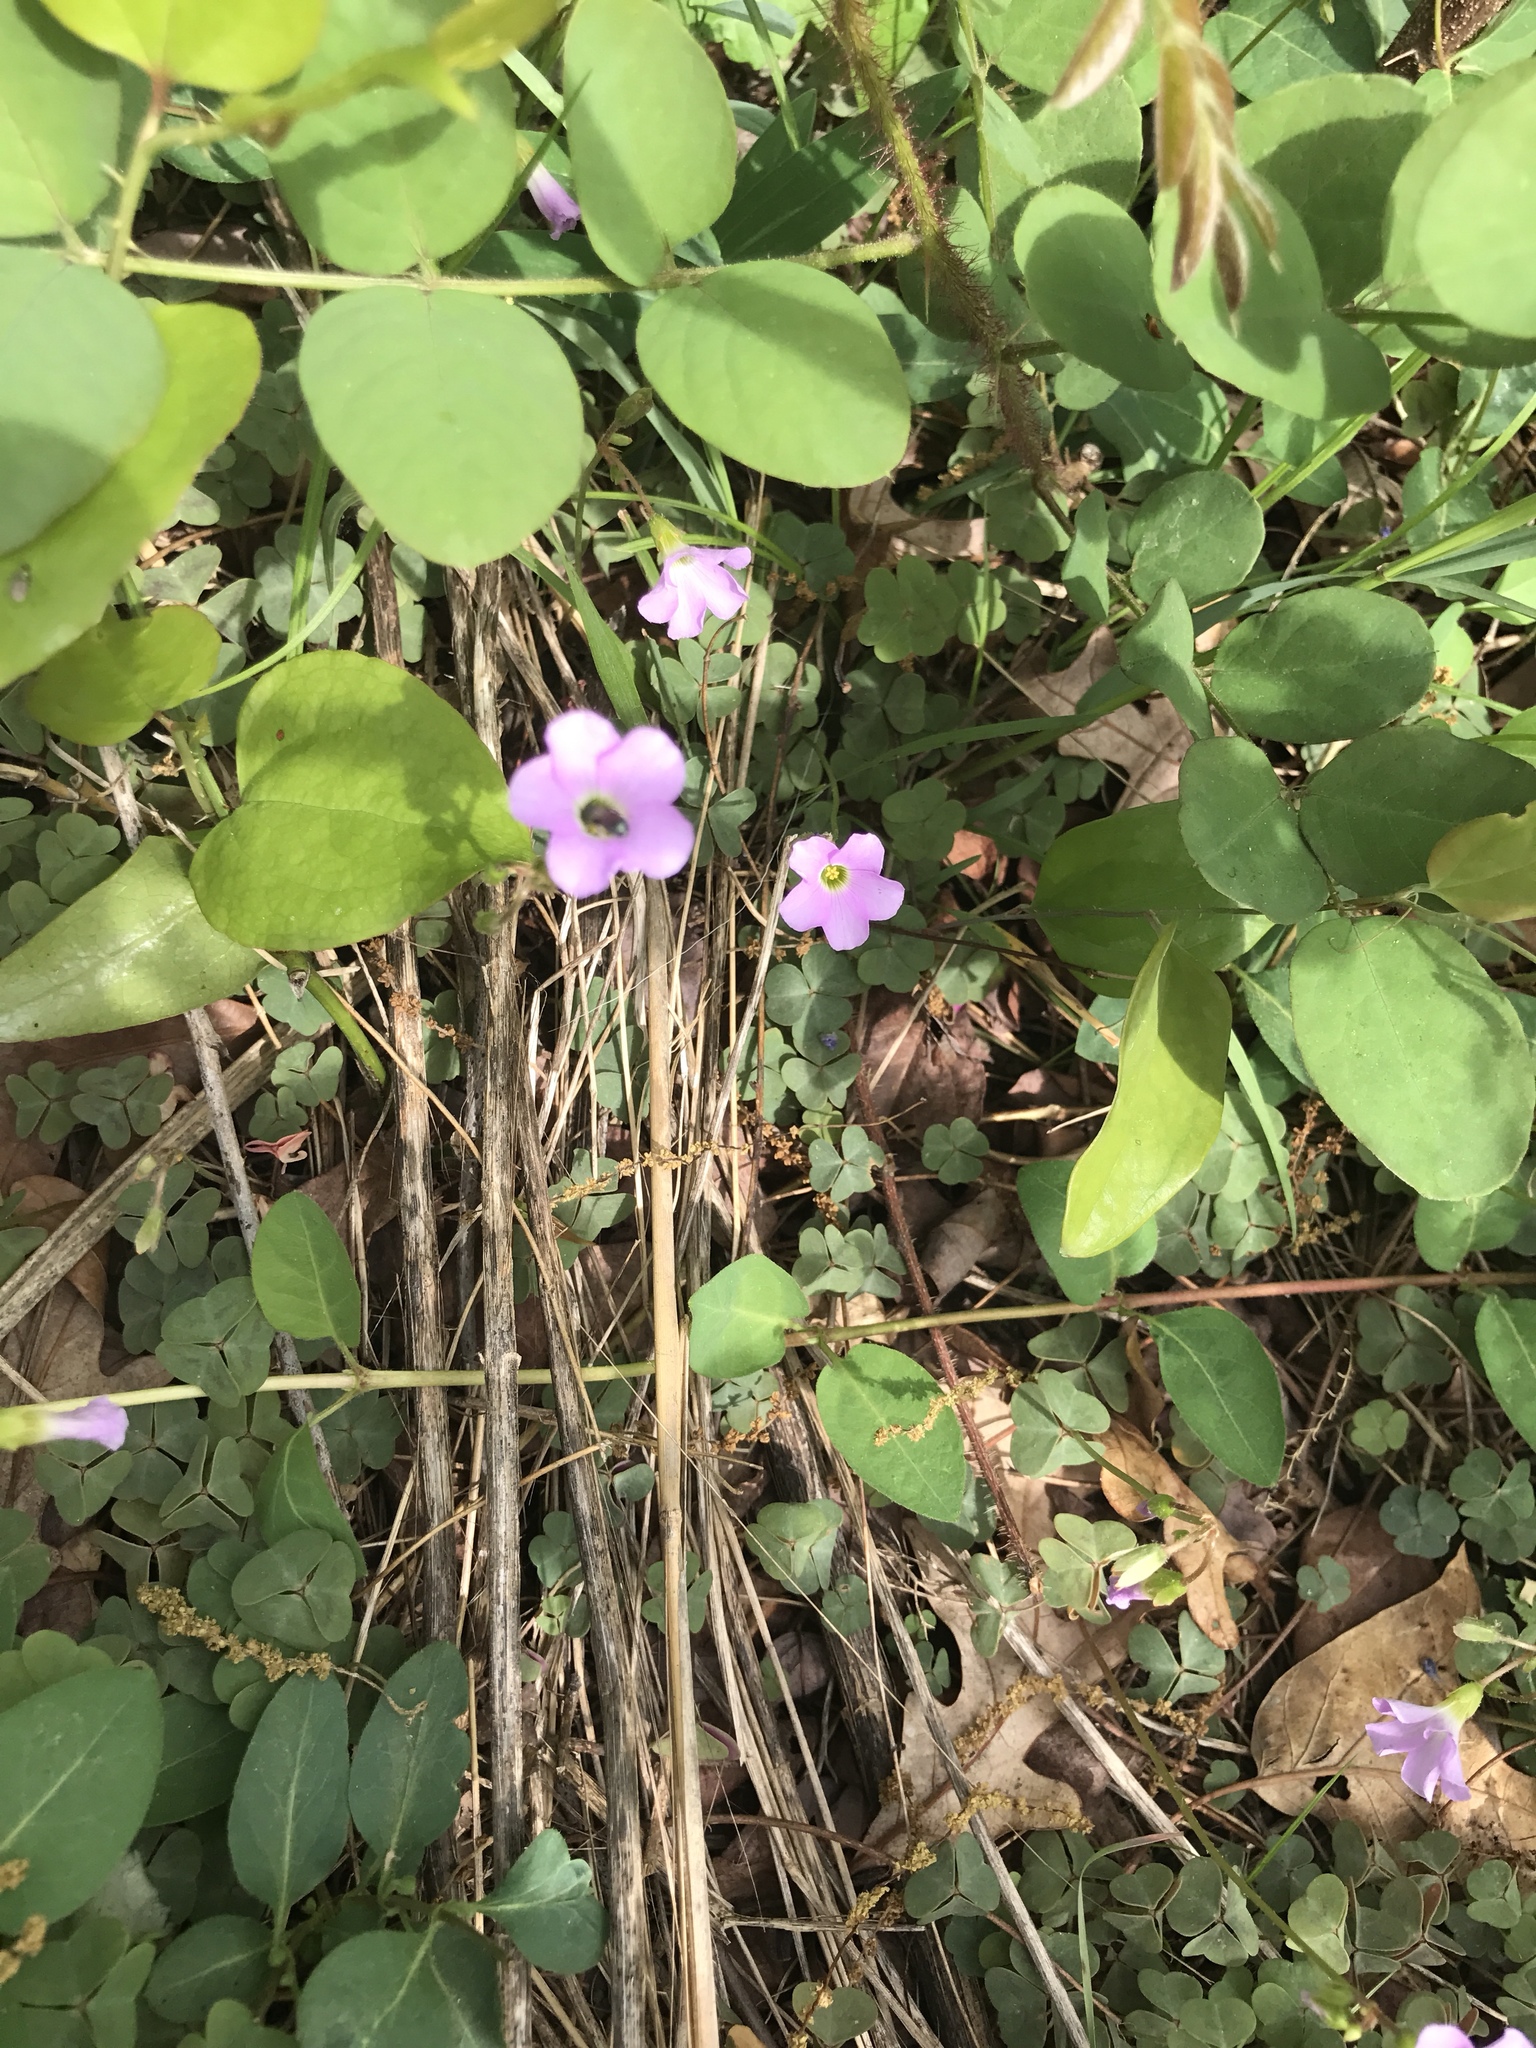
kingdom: Plantae
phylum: Tracheophyta
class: Magnoliopsida
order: Oxalidales
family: Oxalidaceae
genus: Oxalis
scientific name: Oxalis violacea
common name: Violet wood-sorrel
